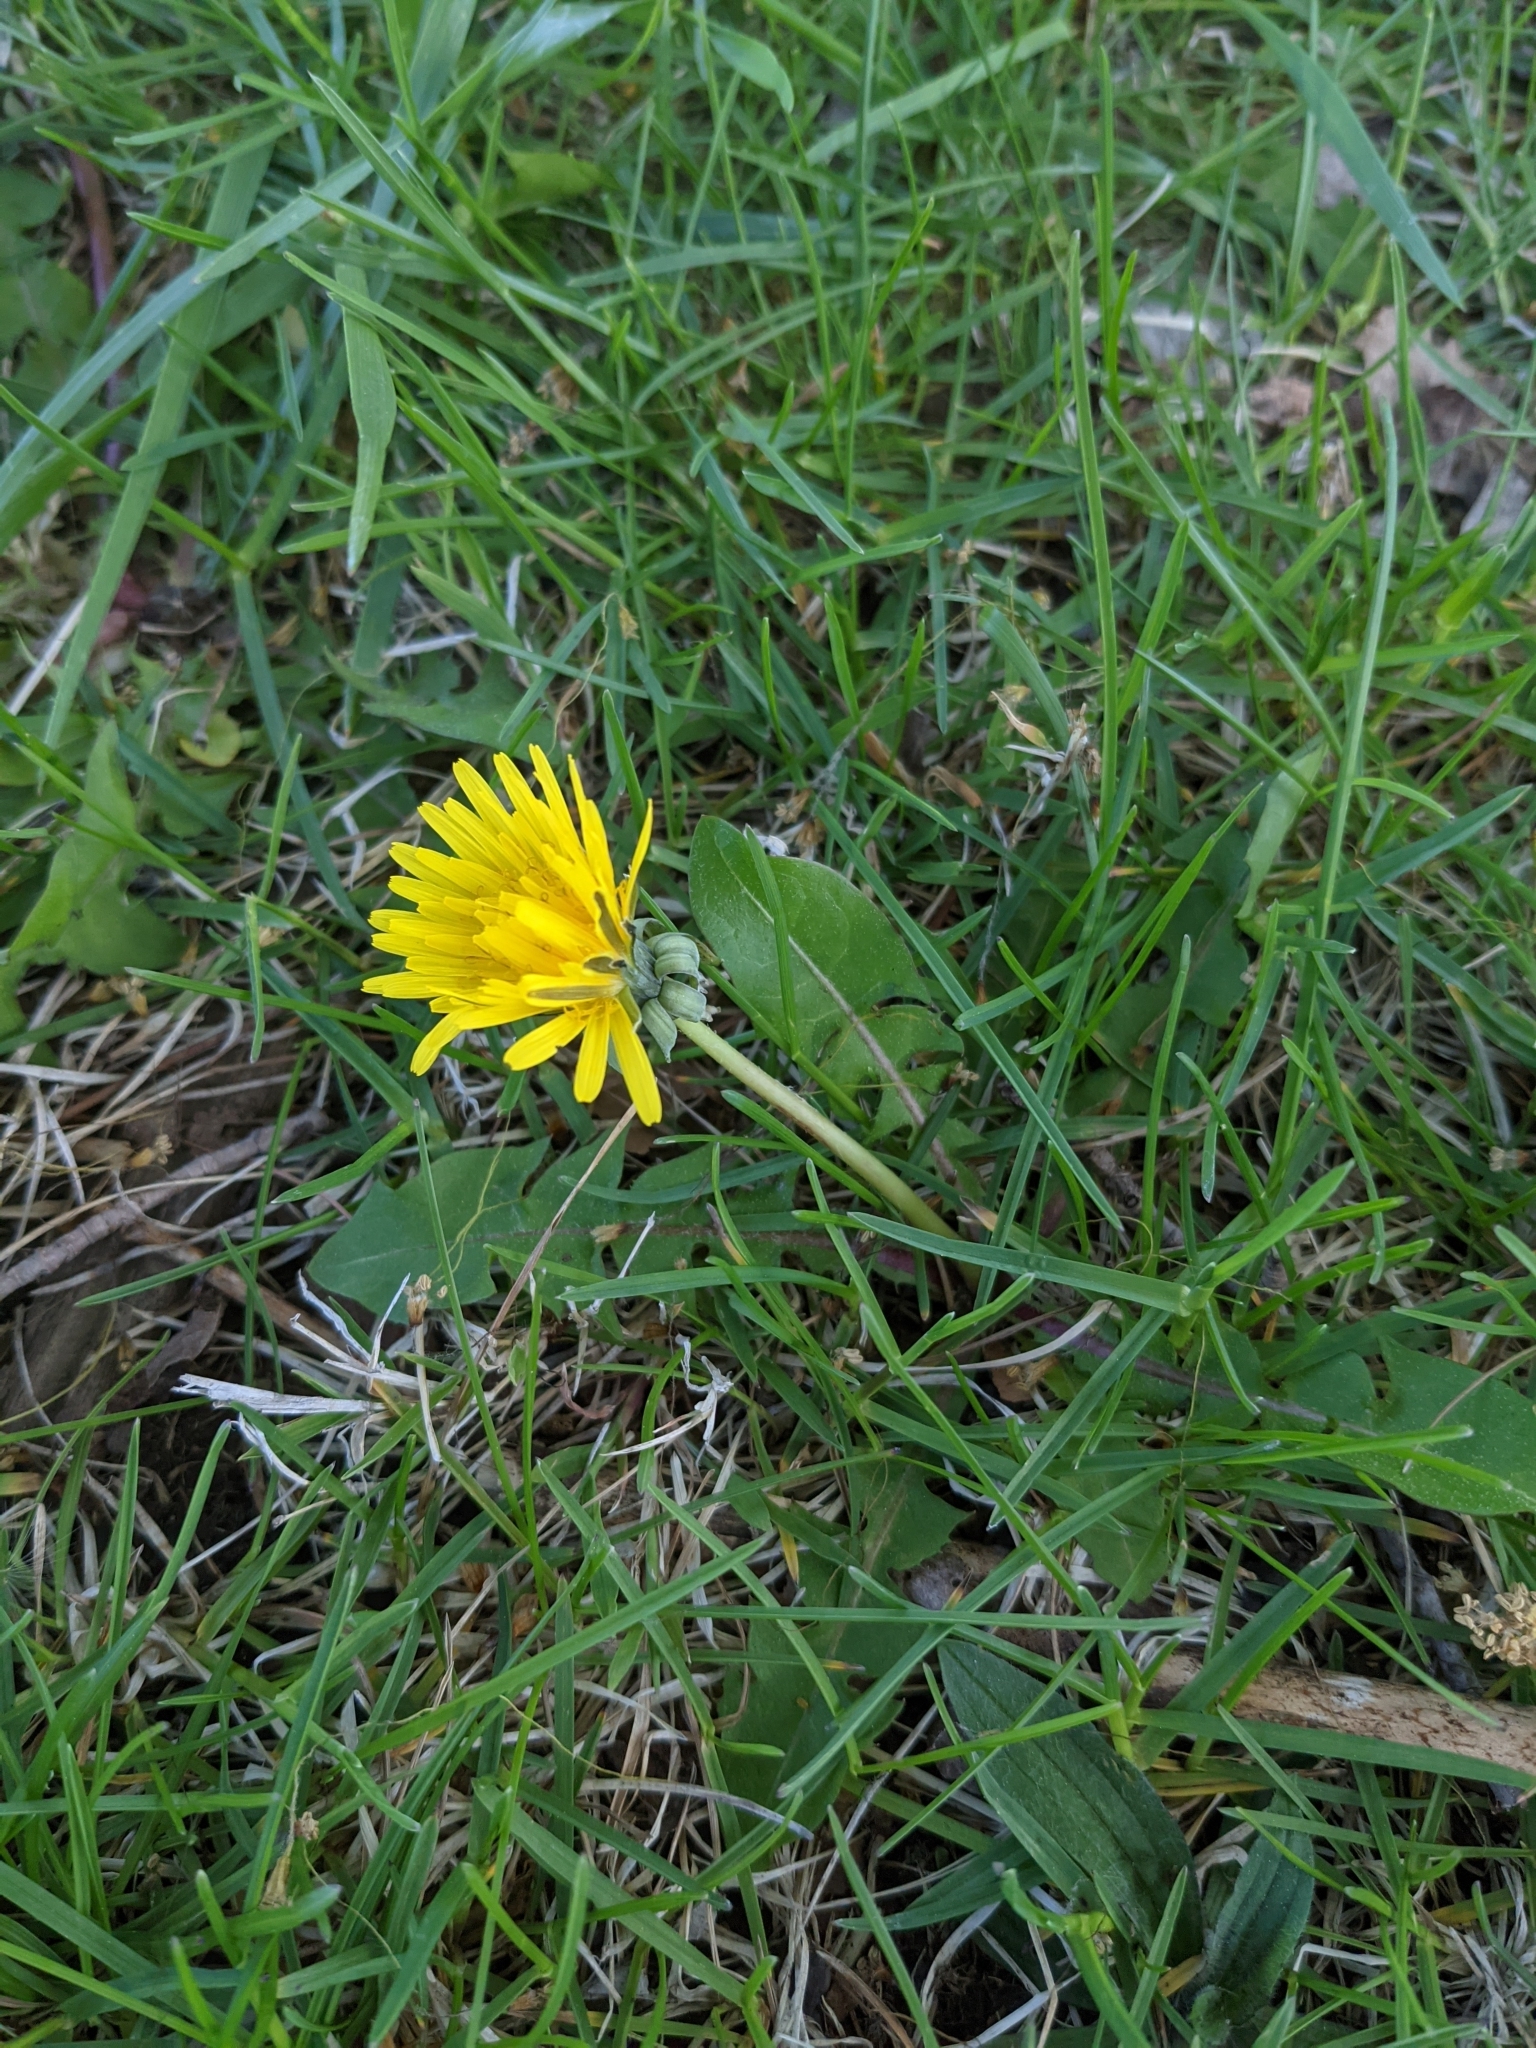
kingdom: Plantae
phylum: Tracheophyta
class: Magnoliopsida
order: Asterales
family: Asteraceae
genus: Taraxacum
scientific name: Taraxacum officinale
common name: Common dandelion
